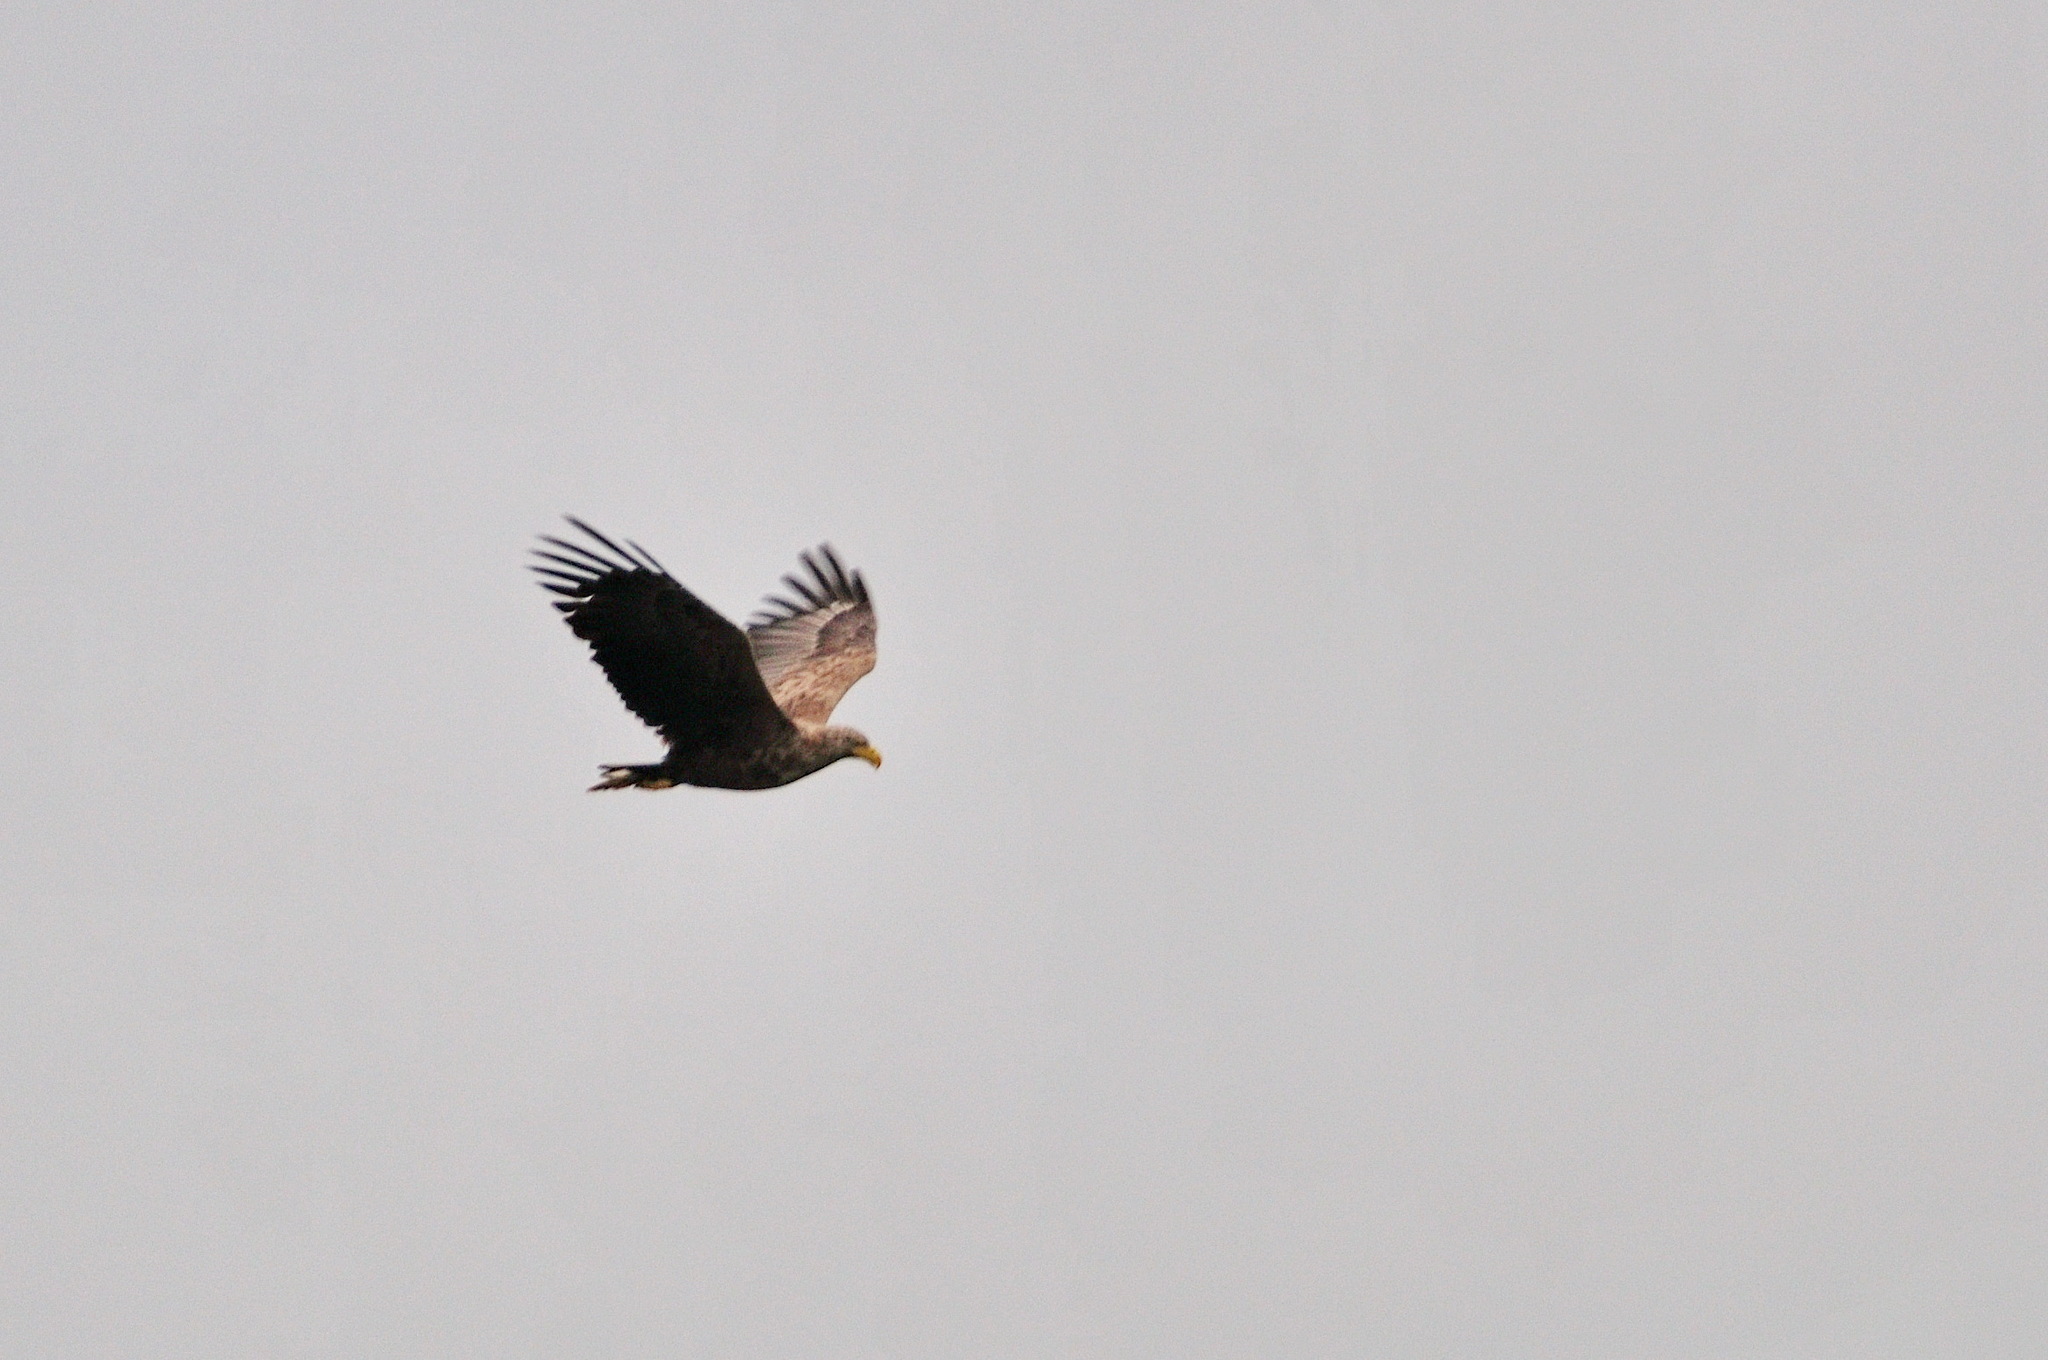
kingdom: Animalia
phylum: Chordata
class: Aves
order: Accipitriformes
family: Accipitridae
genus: Haliaeetus
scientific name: Haliaeetus albicilla
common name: White-tailed eagle
